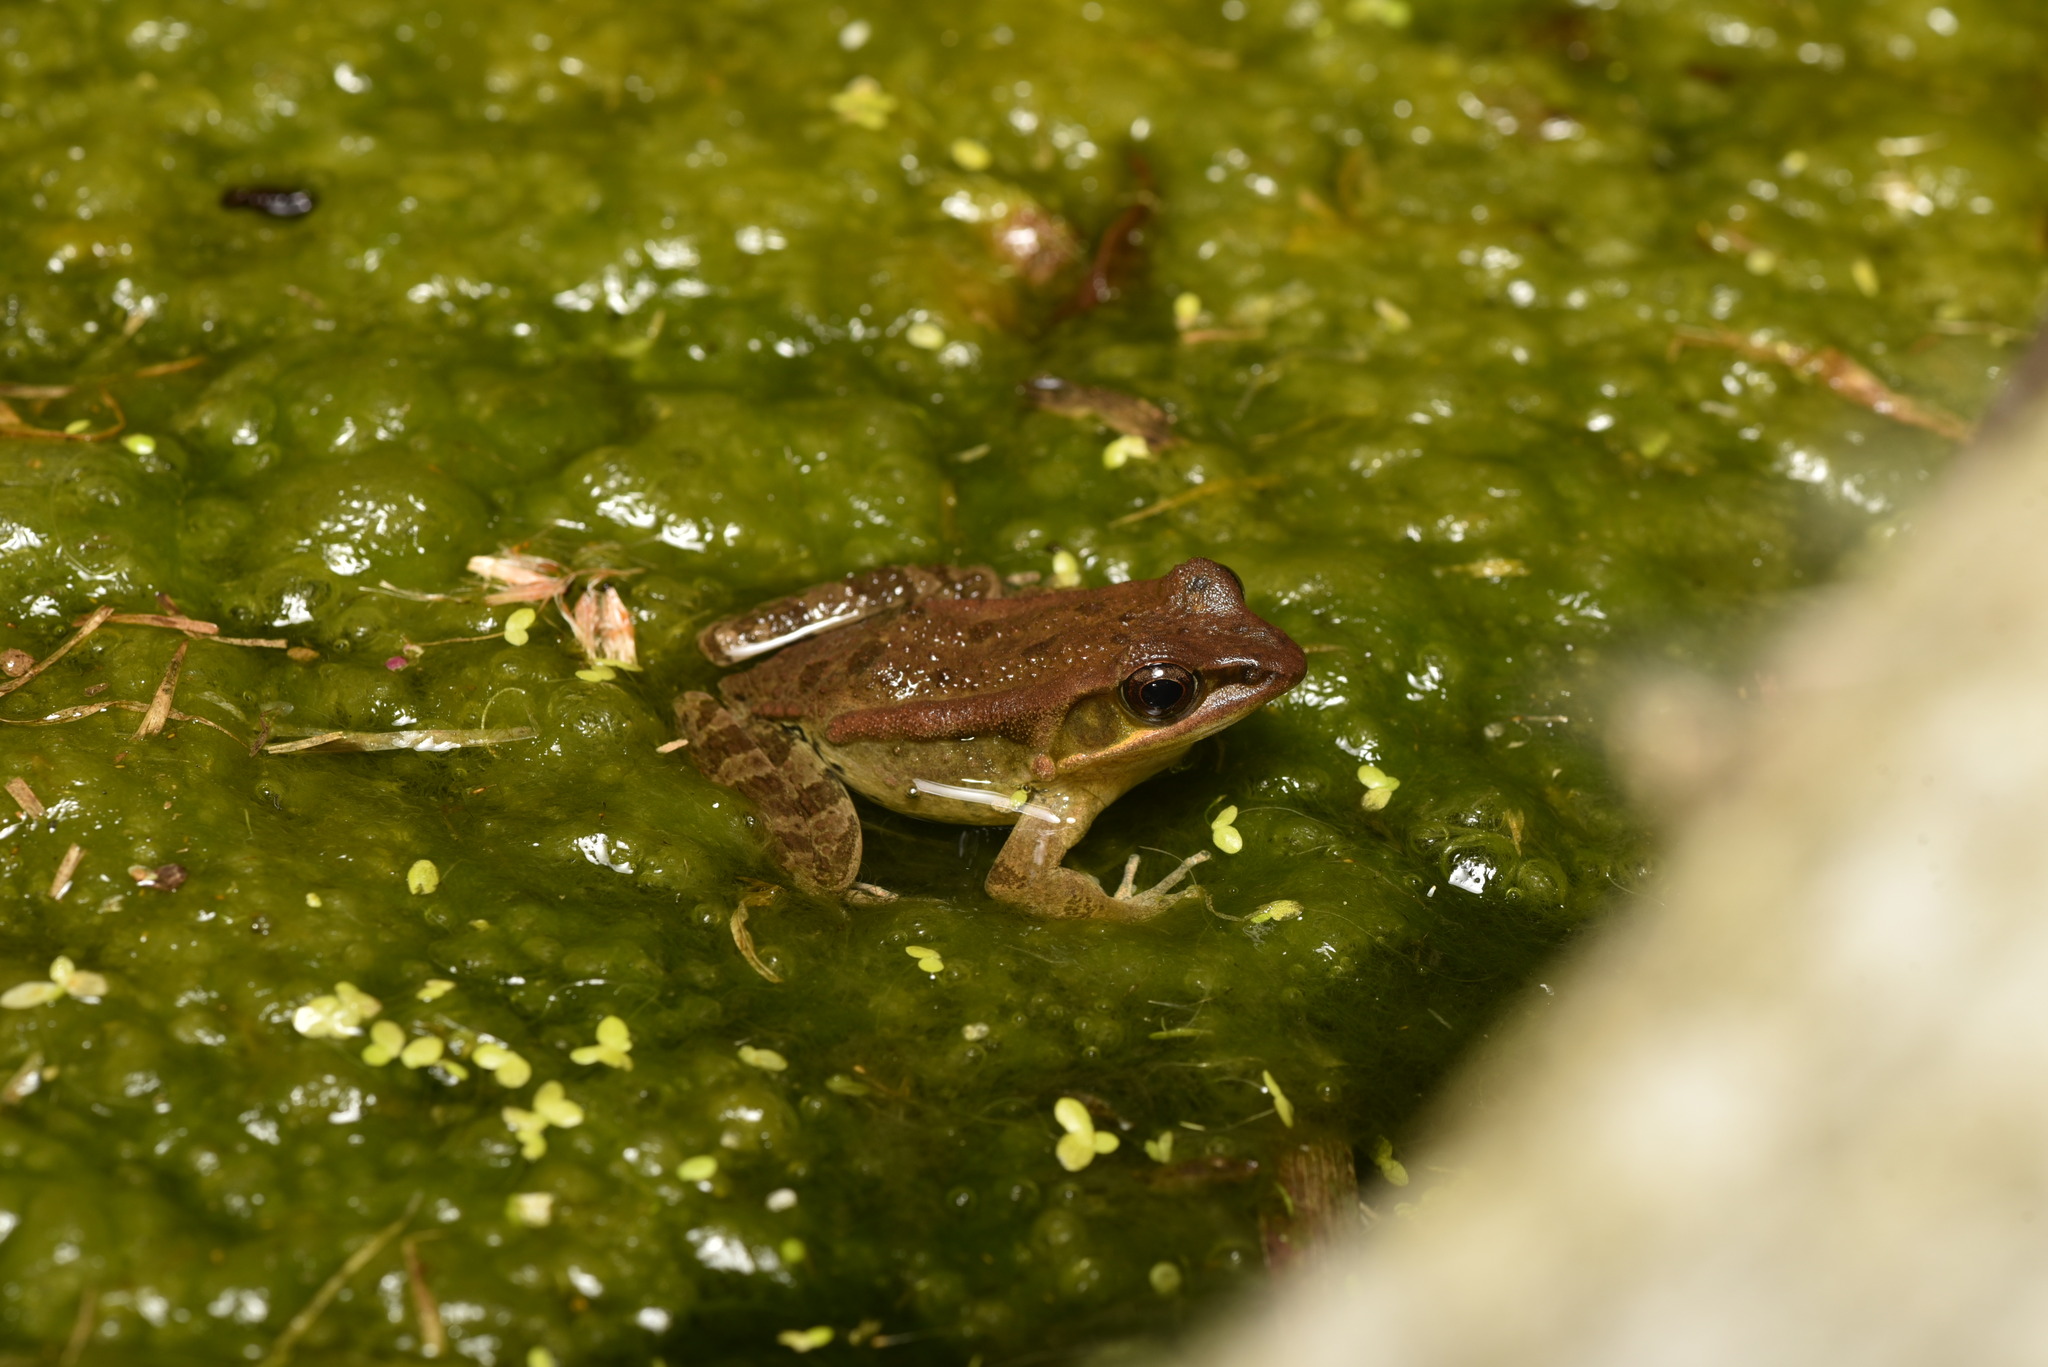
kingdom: Animalia
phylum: Chordata
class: Amphibia
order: Anura
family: Ranidae
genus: Hylarana
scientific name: Hylarana latouchii
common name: Broad-folded frog
